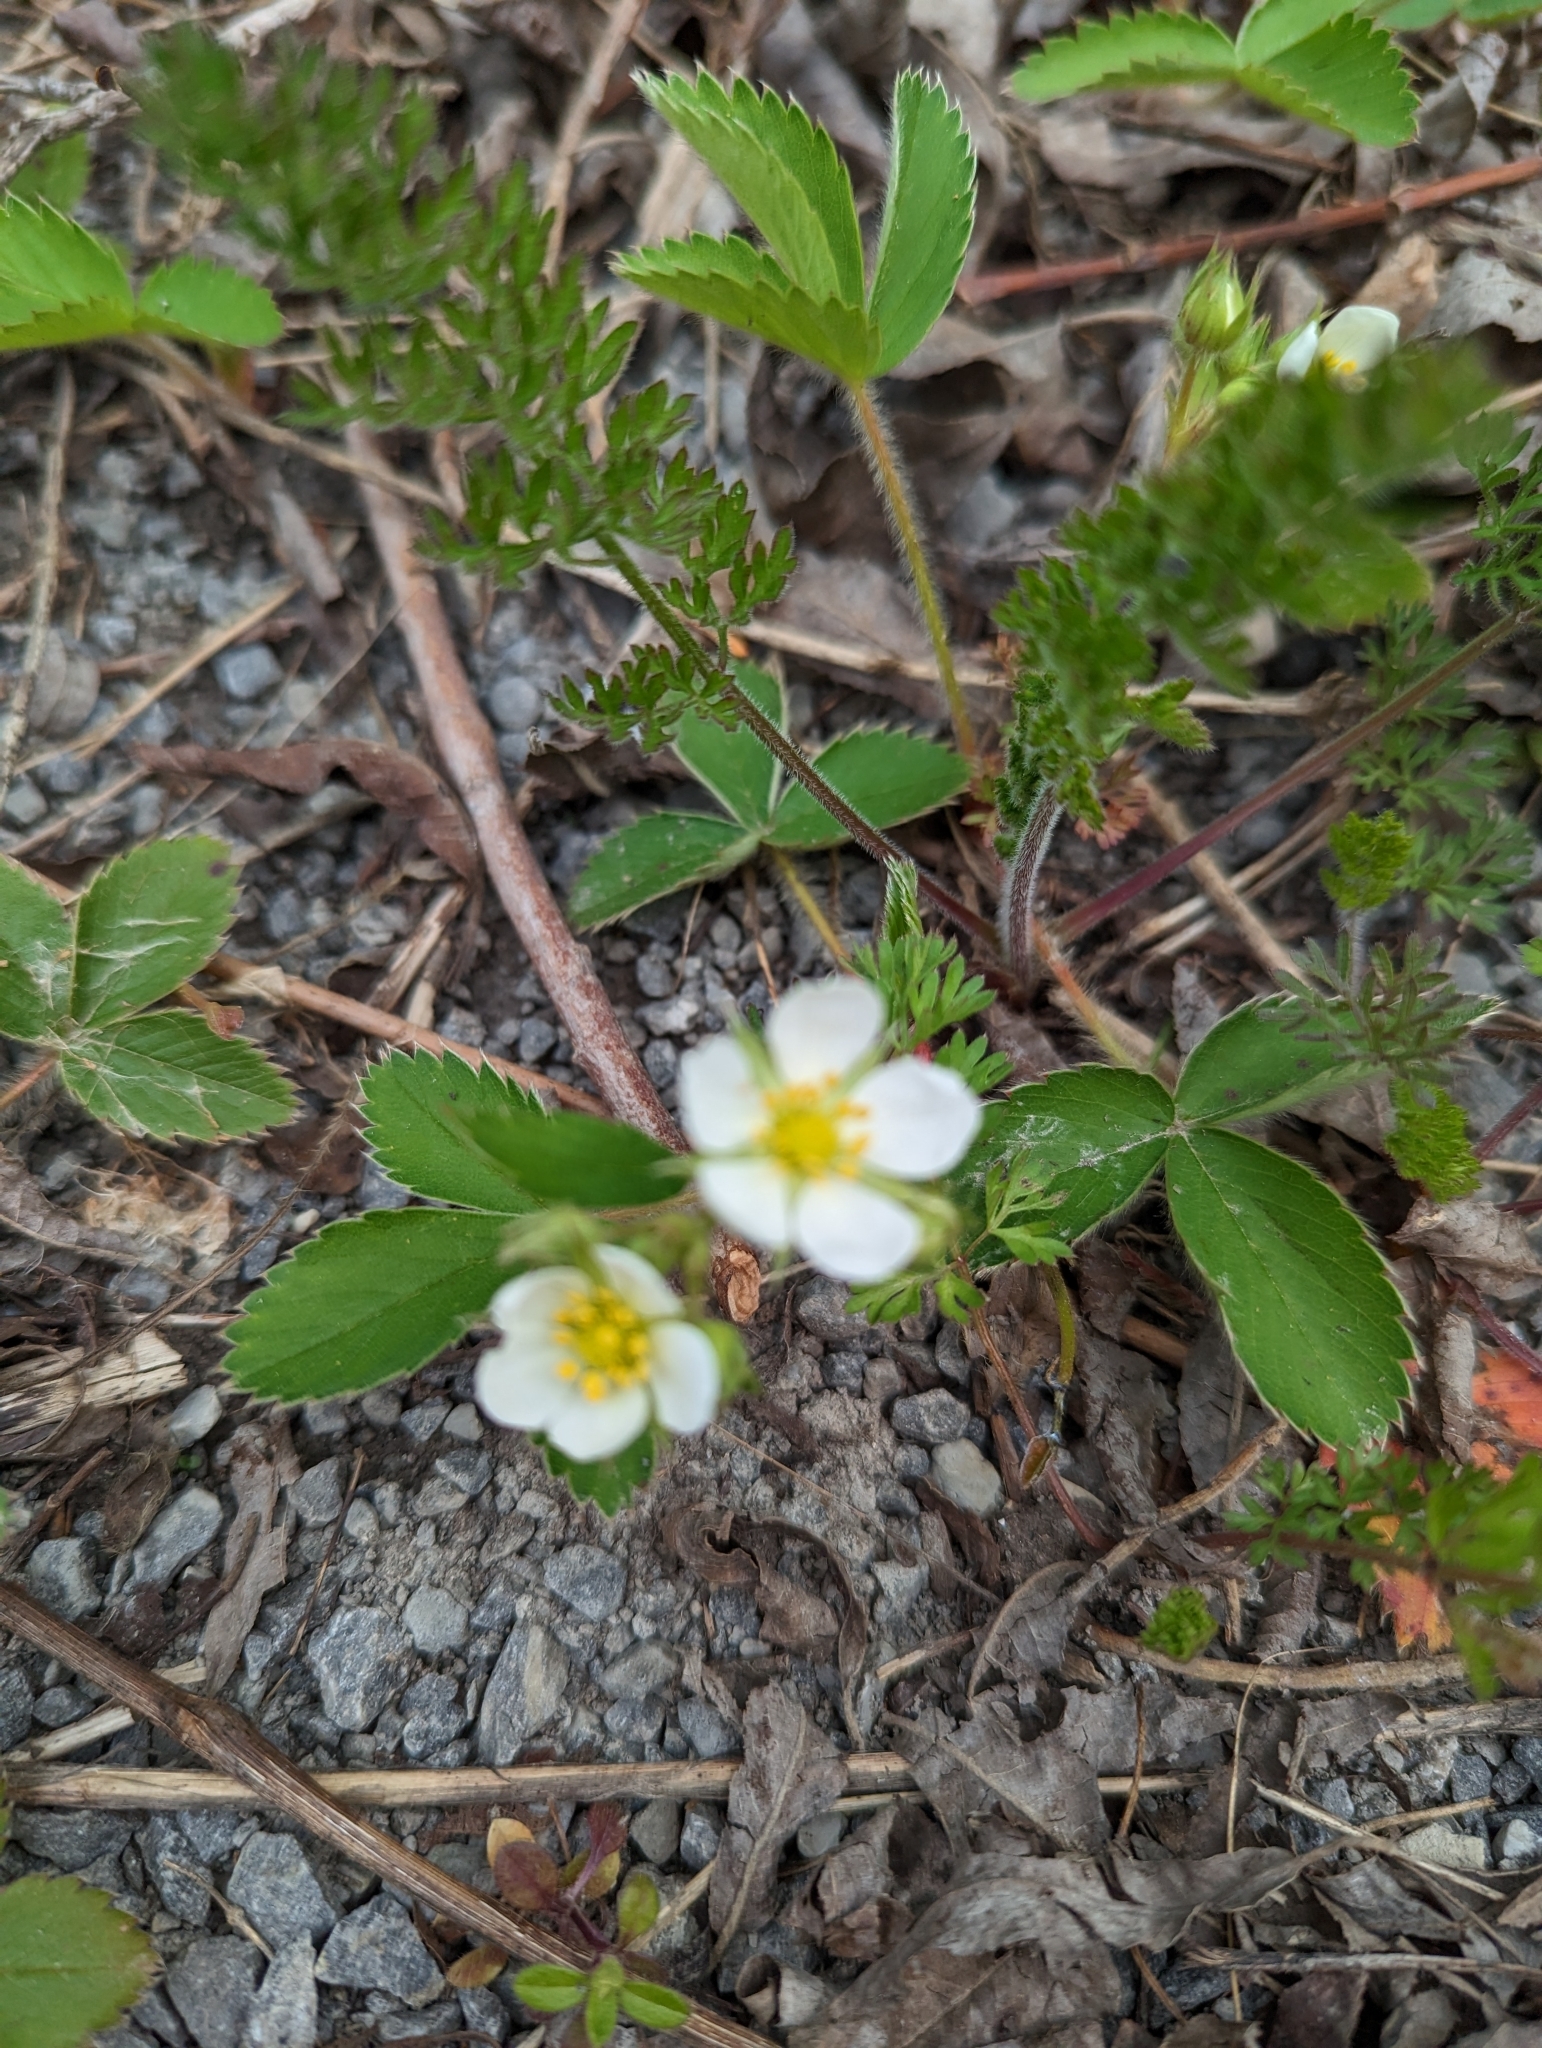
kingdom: Plantae
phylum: Tracheophyta
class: Magnoliopsida
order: Rosales
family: Rosaceae
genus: Fragaria
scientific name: Fragaria virginiana
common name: Thickleaved wild strawberry
